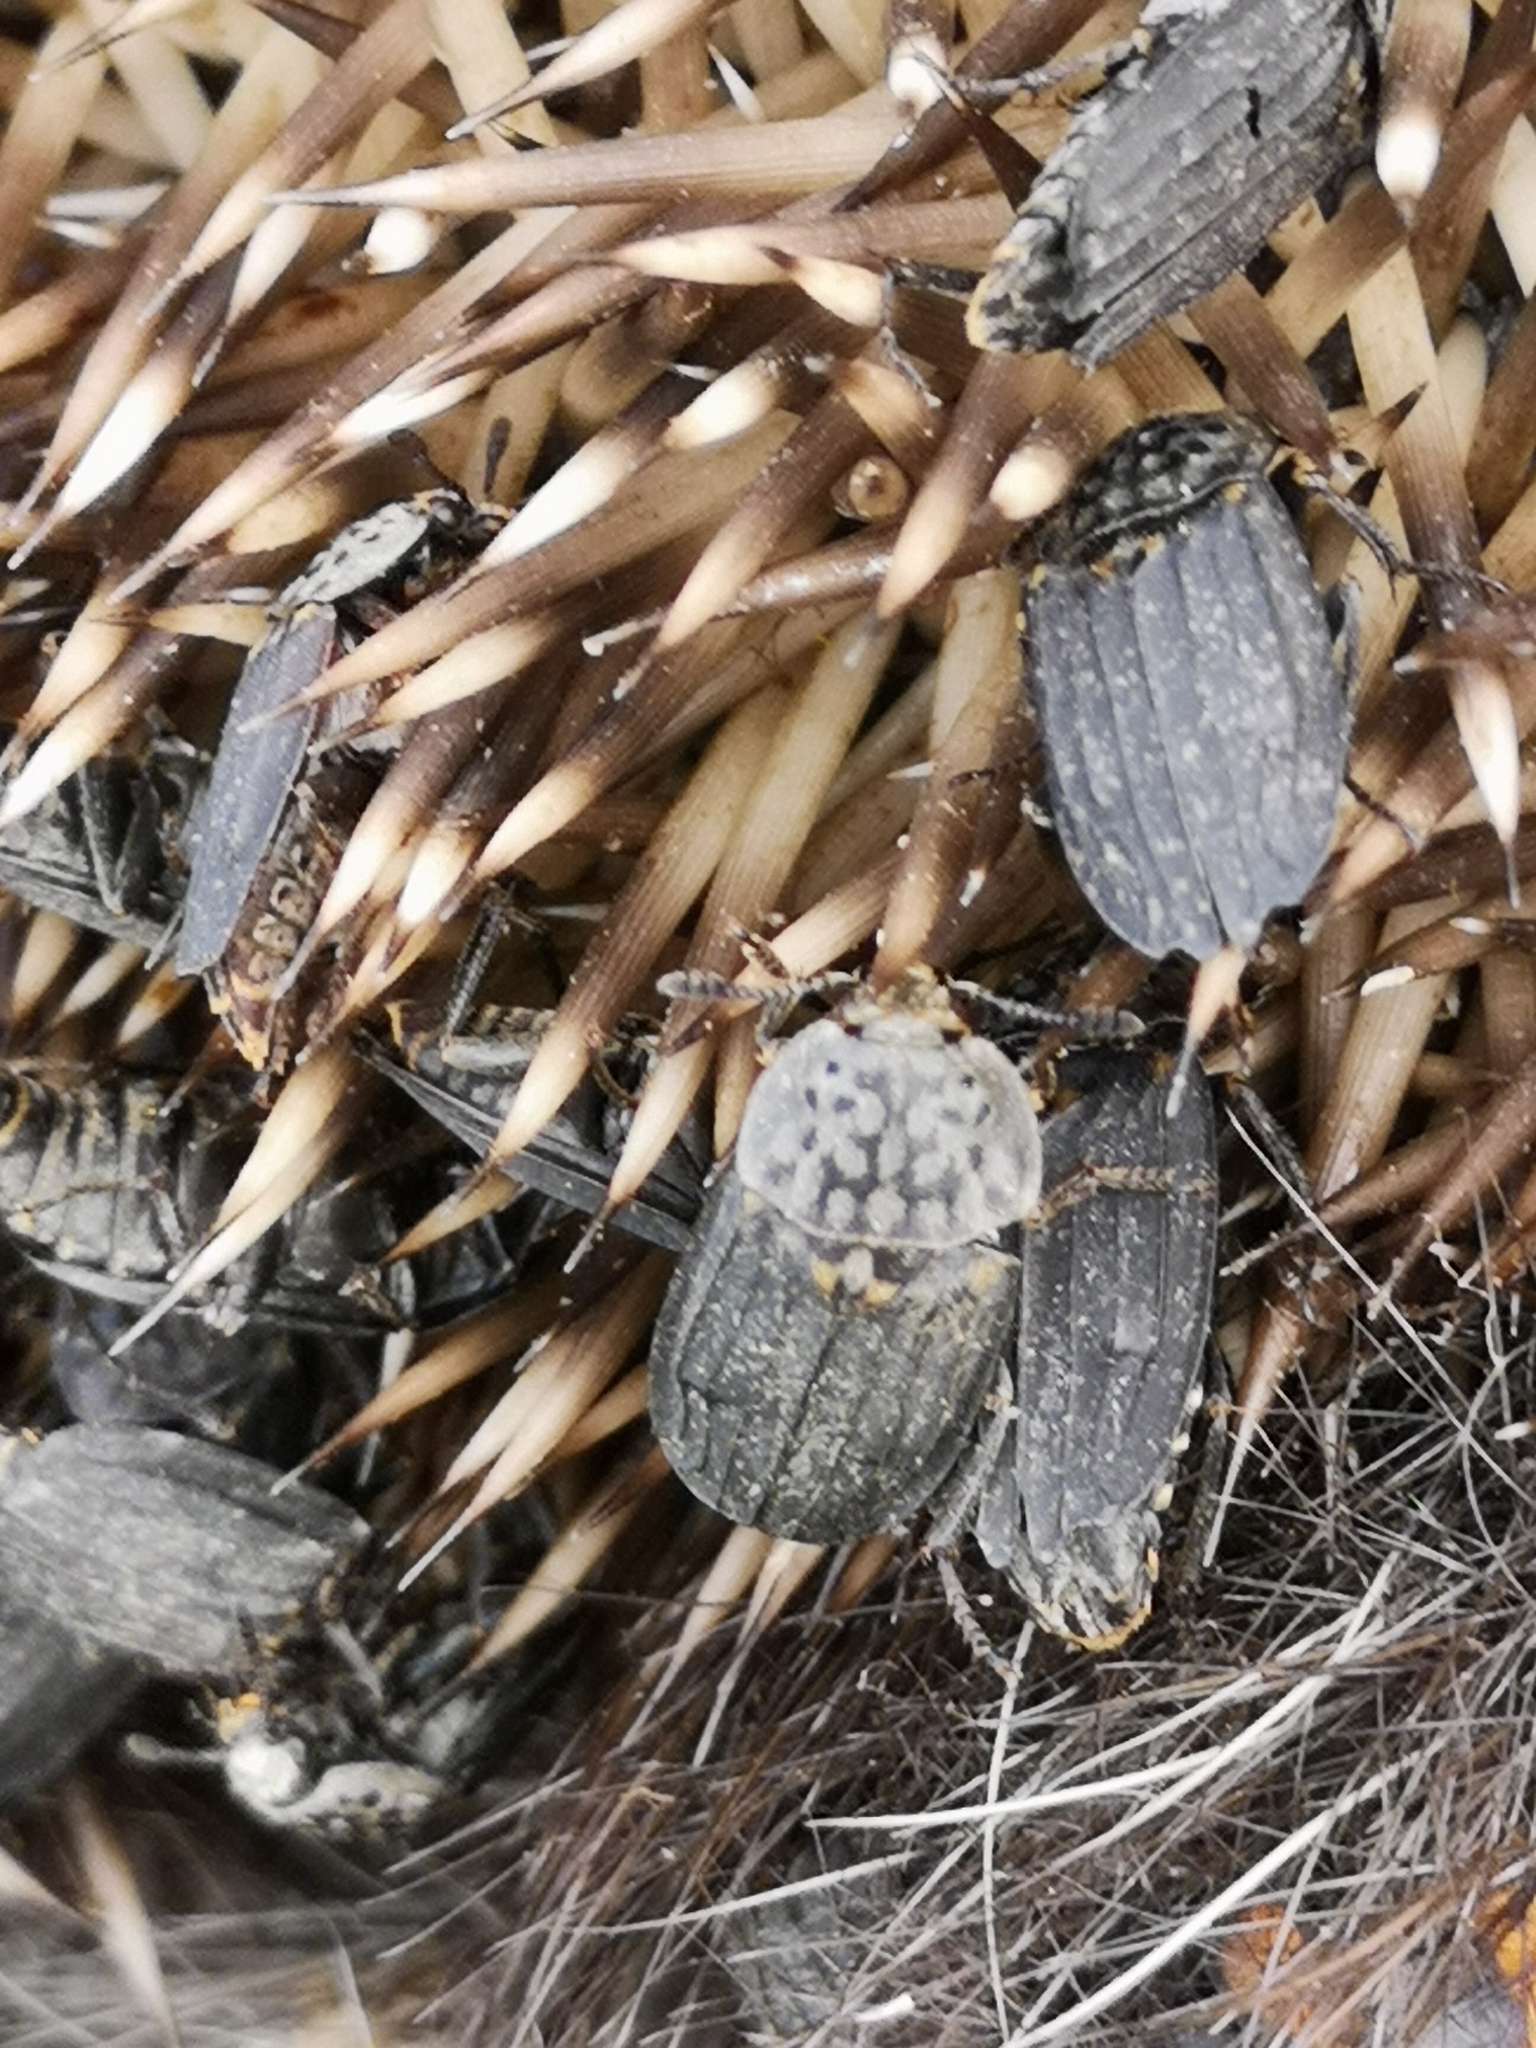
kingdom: Animalia
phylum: Arthropoda
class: Insecta
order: Coleoptera
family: Staphylinidae
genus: Thanatophilus
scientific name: Thanatophilus sinuatus
